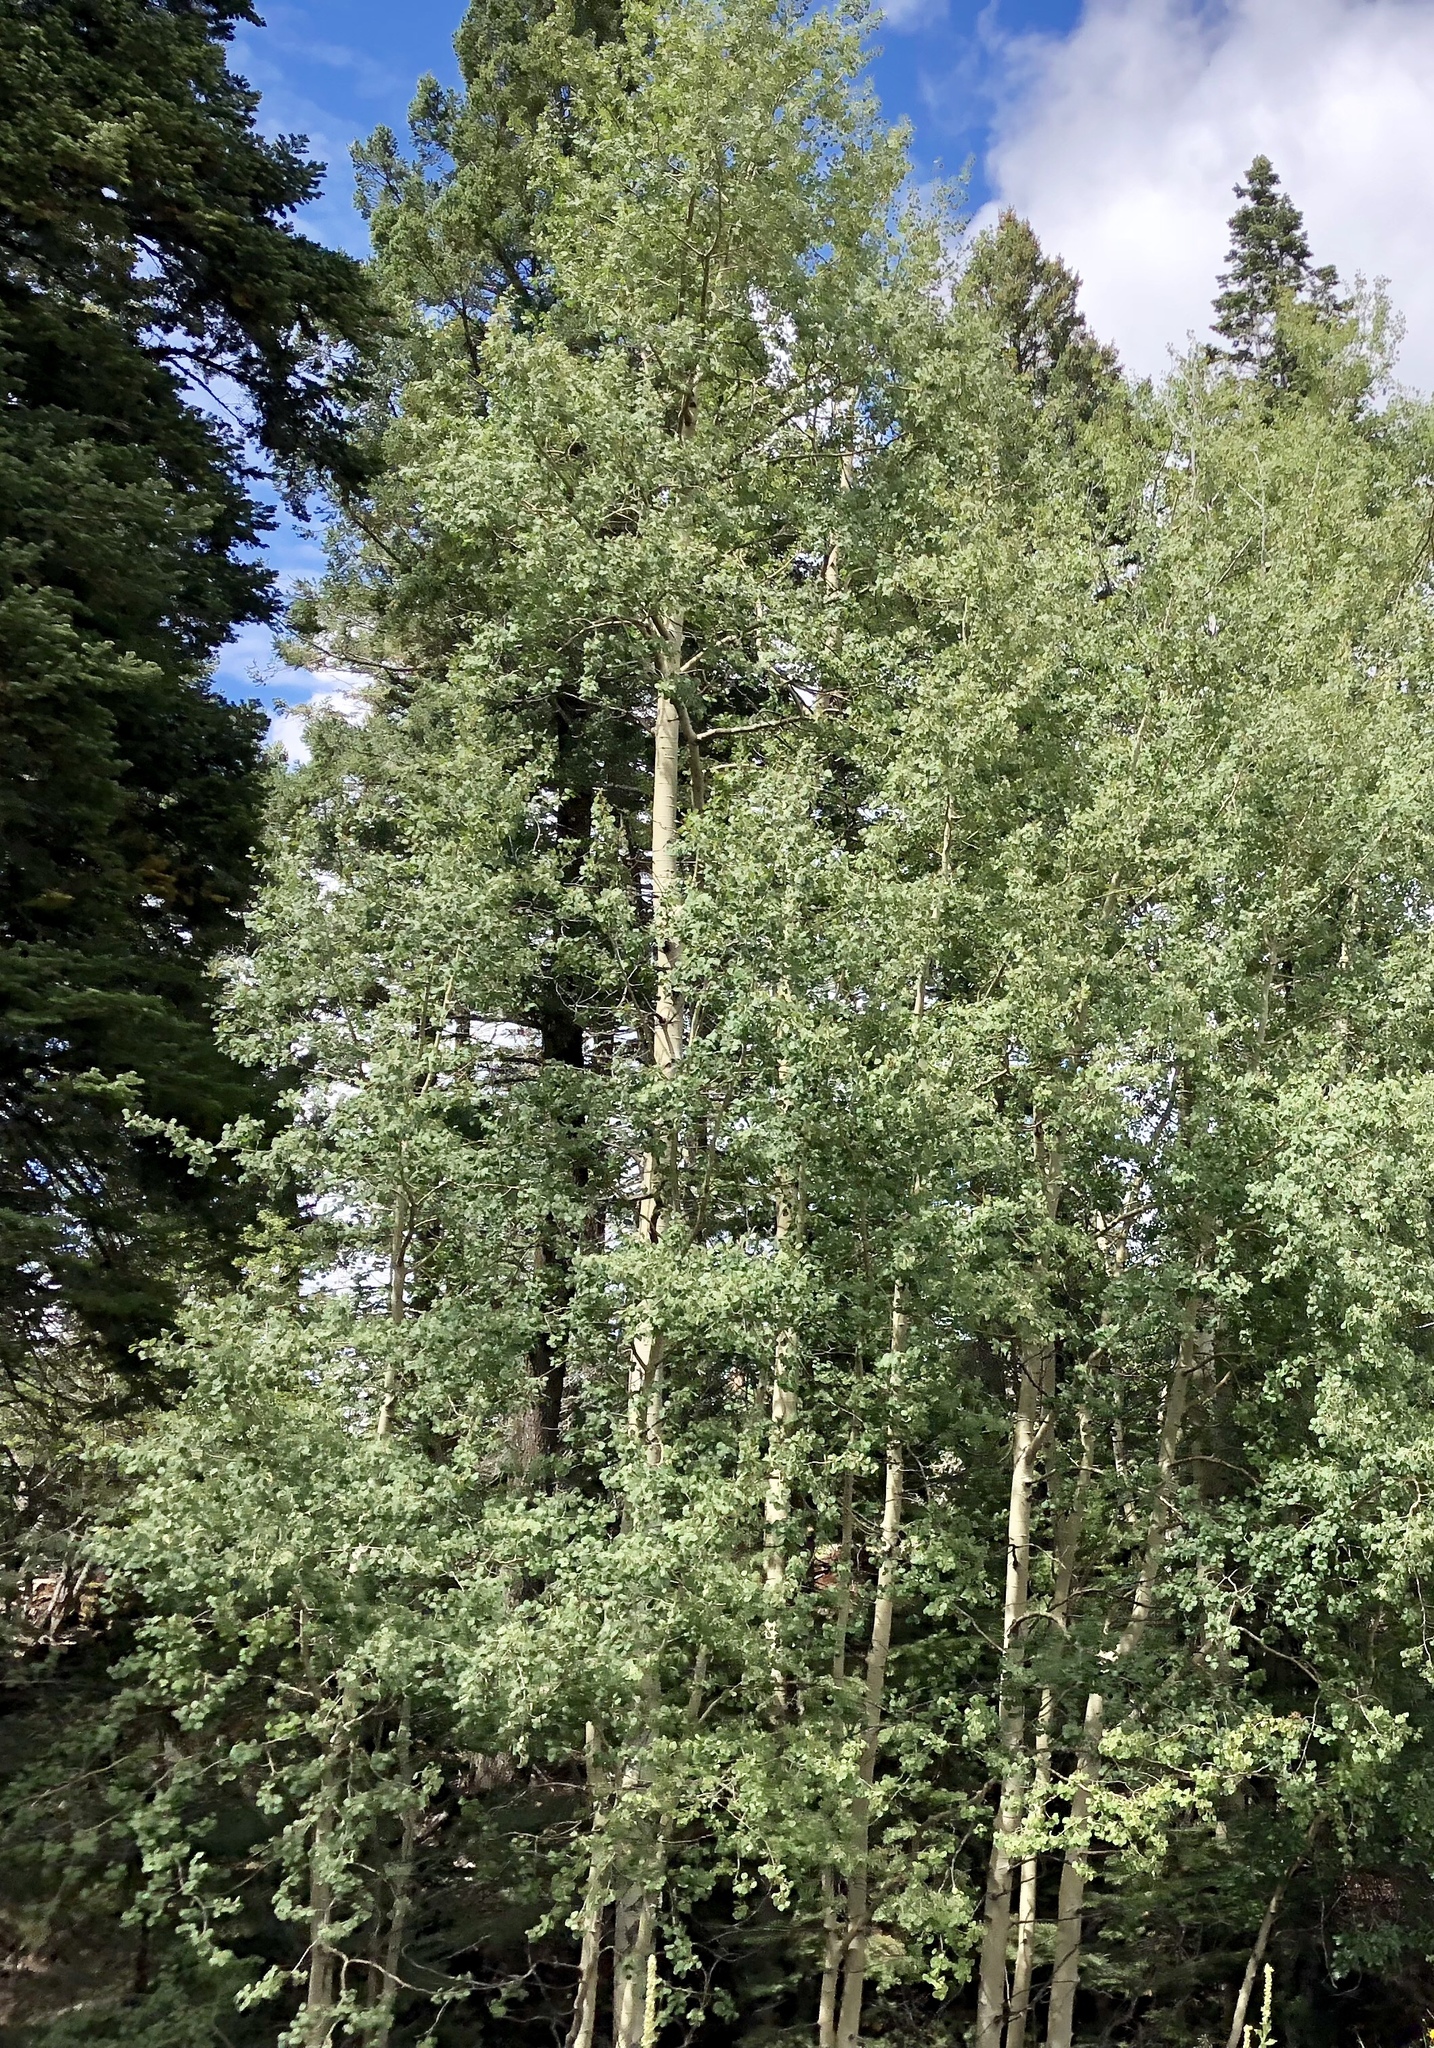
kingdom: Plantae
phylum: Tracheophyta
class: Magnoliopsida
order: Malpighiales
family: Salicaceae
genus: Populus
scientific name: Populus tremuloides
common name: Quaking aspen
